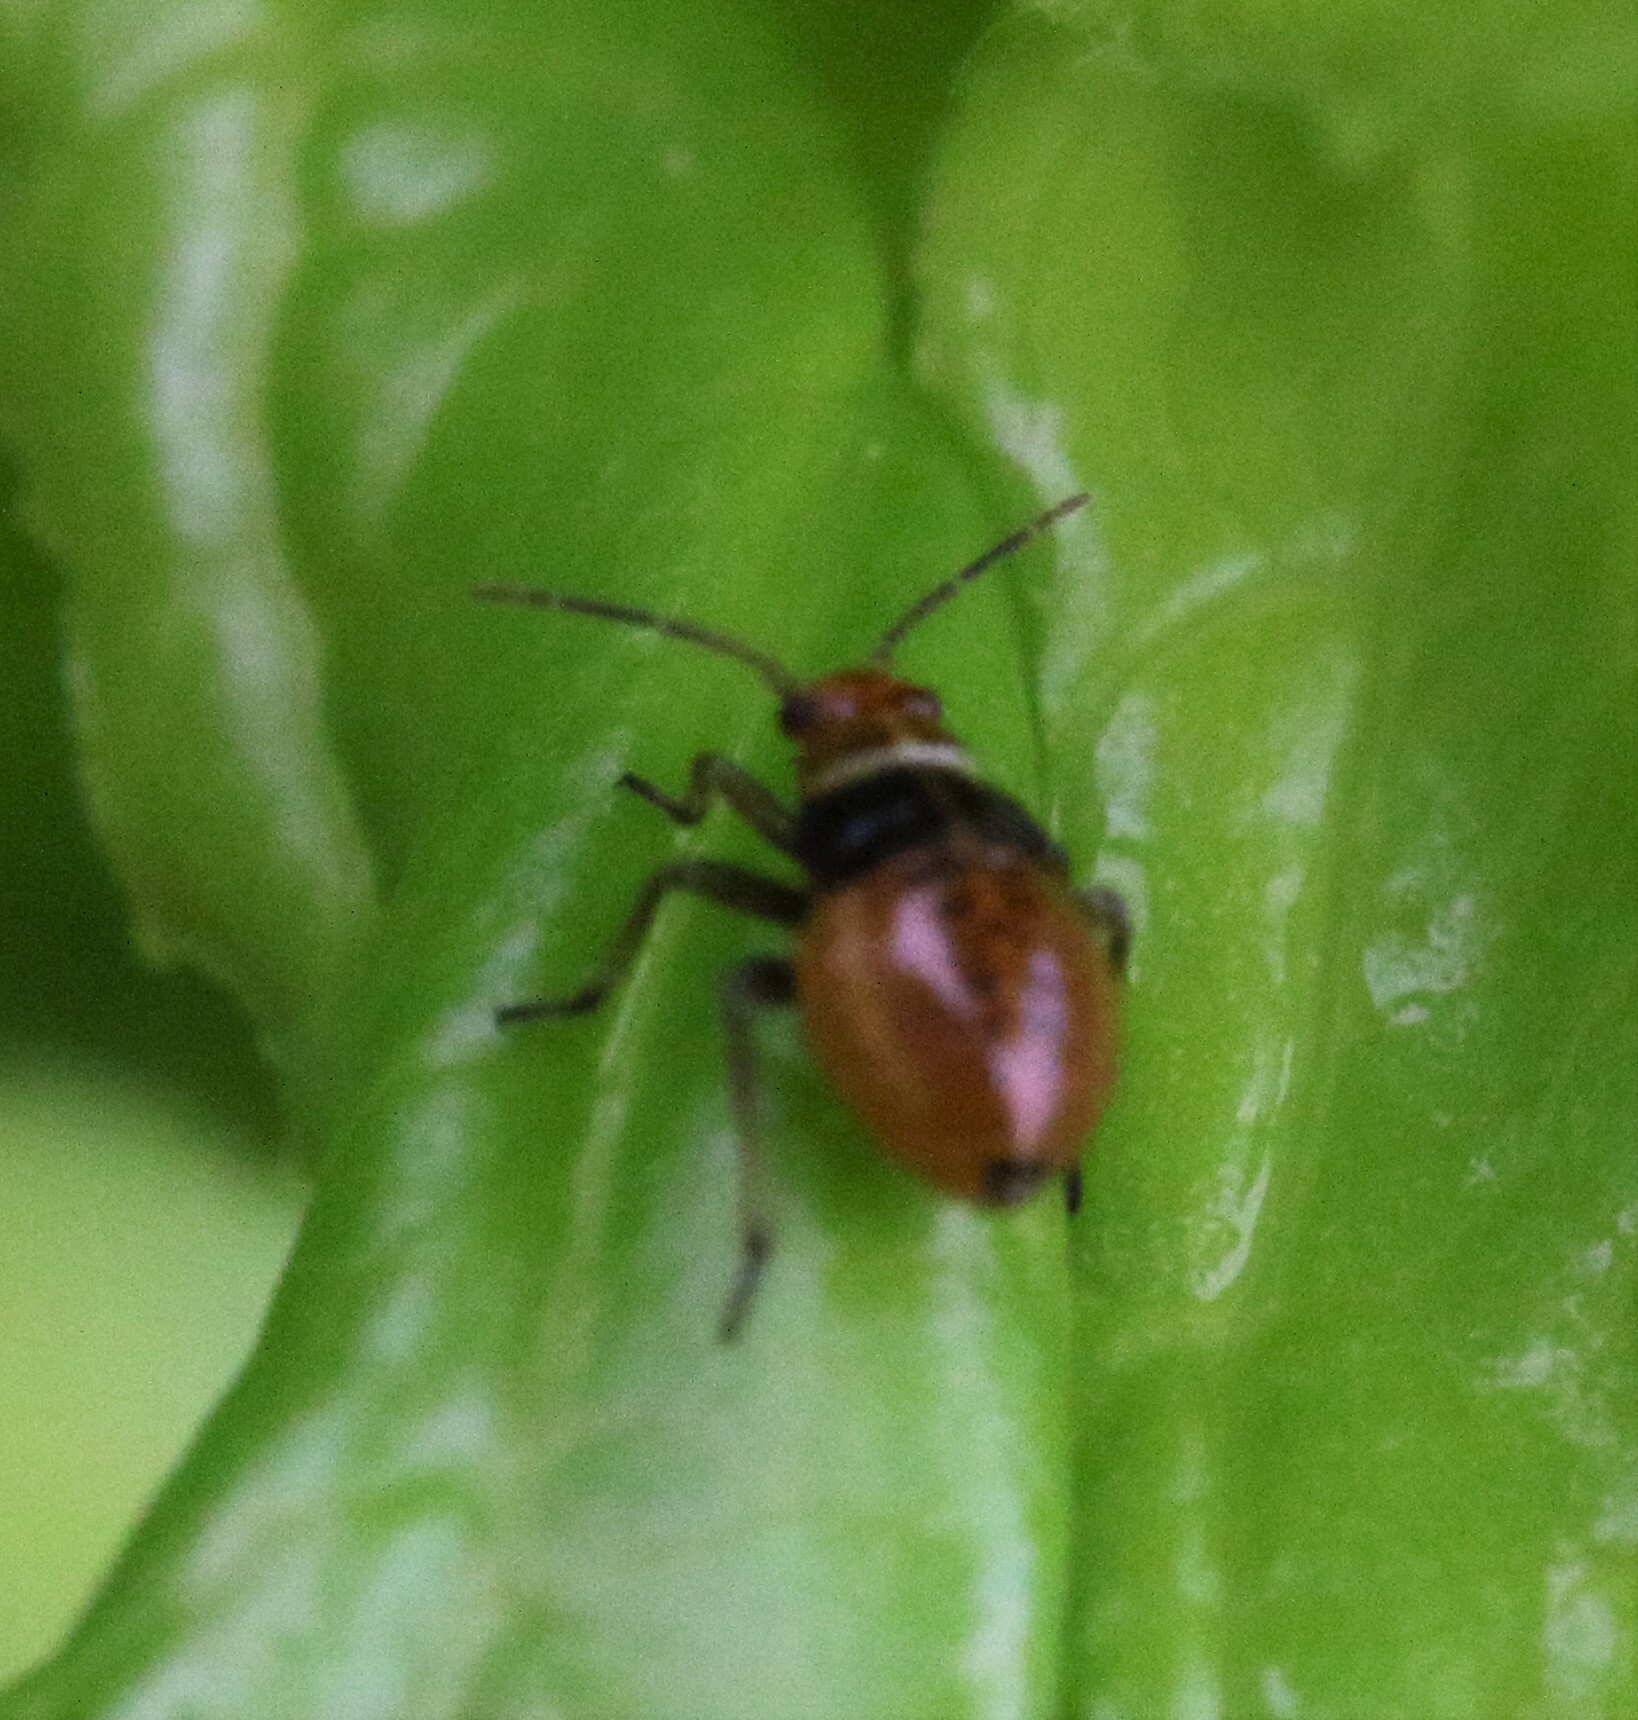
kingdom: Animalia
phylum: Arthropoda
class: Insecta
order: Hemiptera
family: Miridae
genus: Poecilocapsus
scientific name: Poecilocapsus lineatus
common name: Four-lined plant bug
